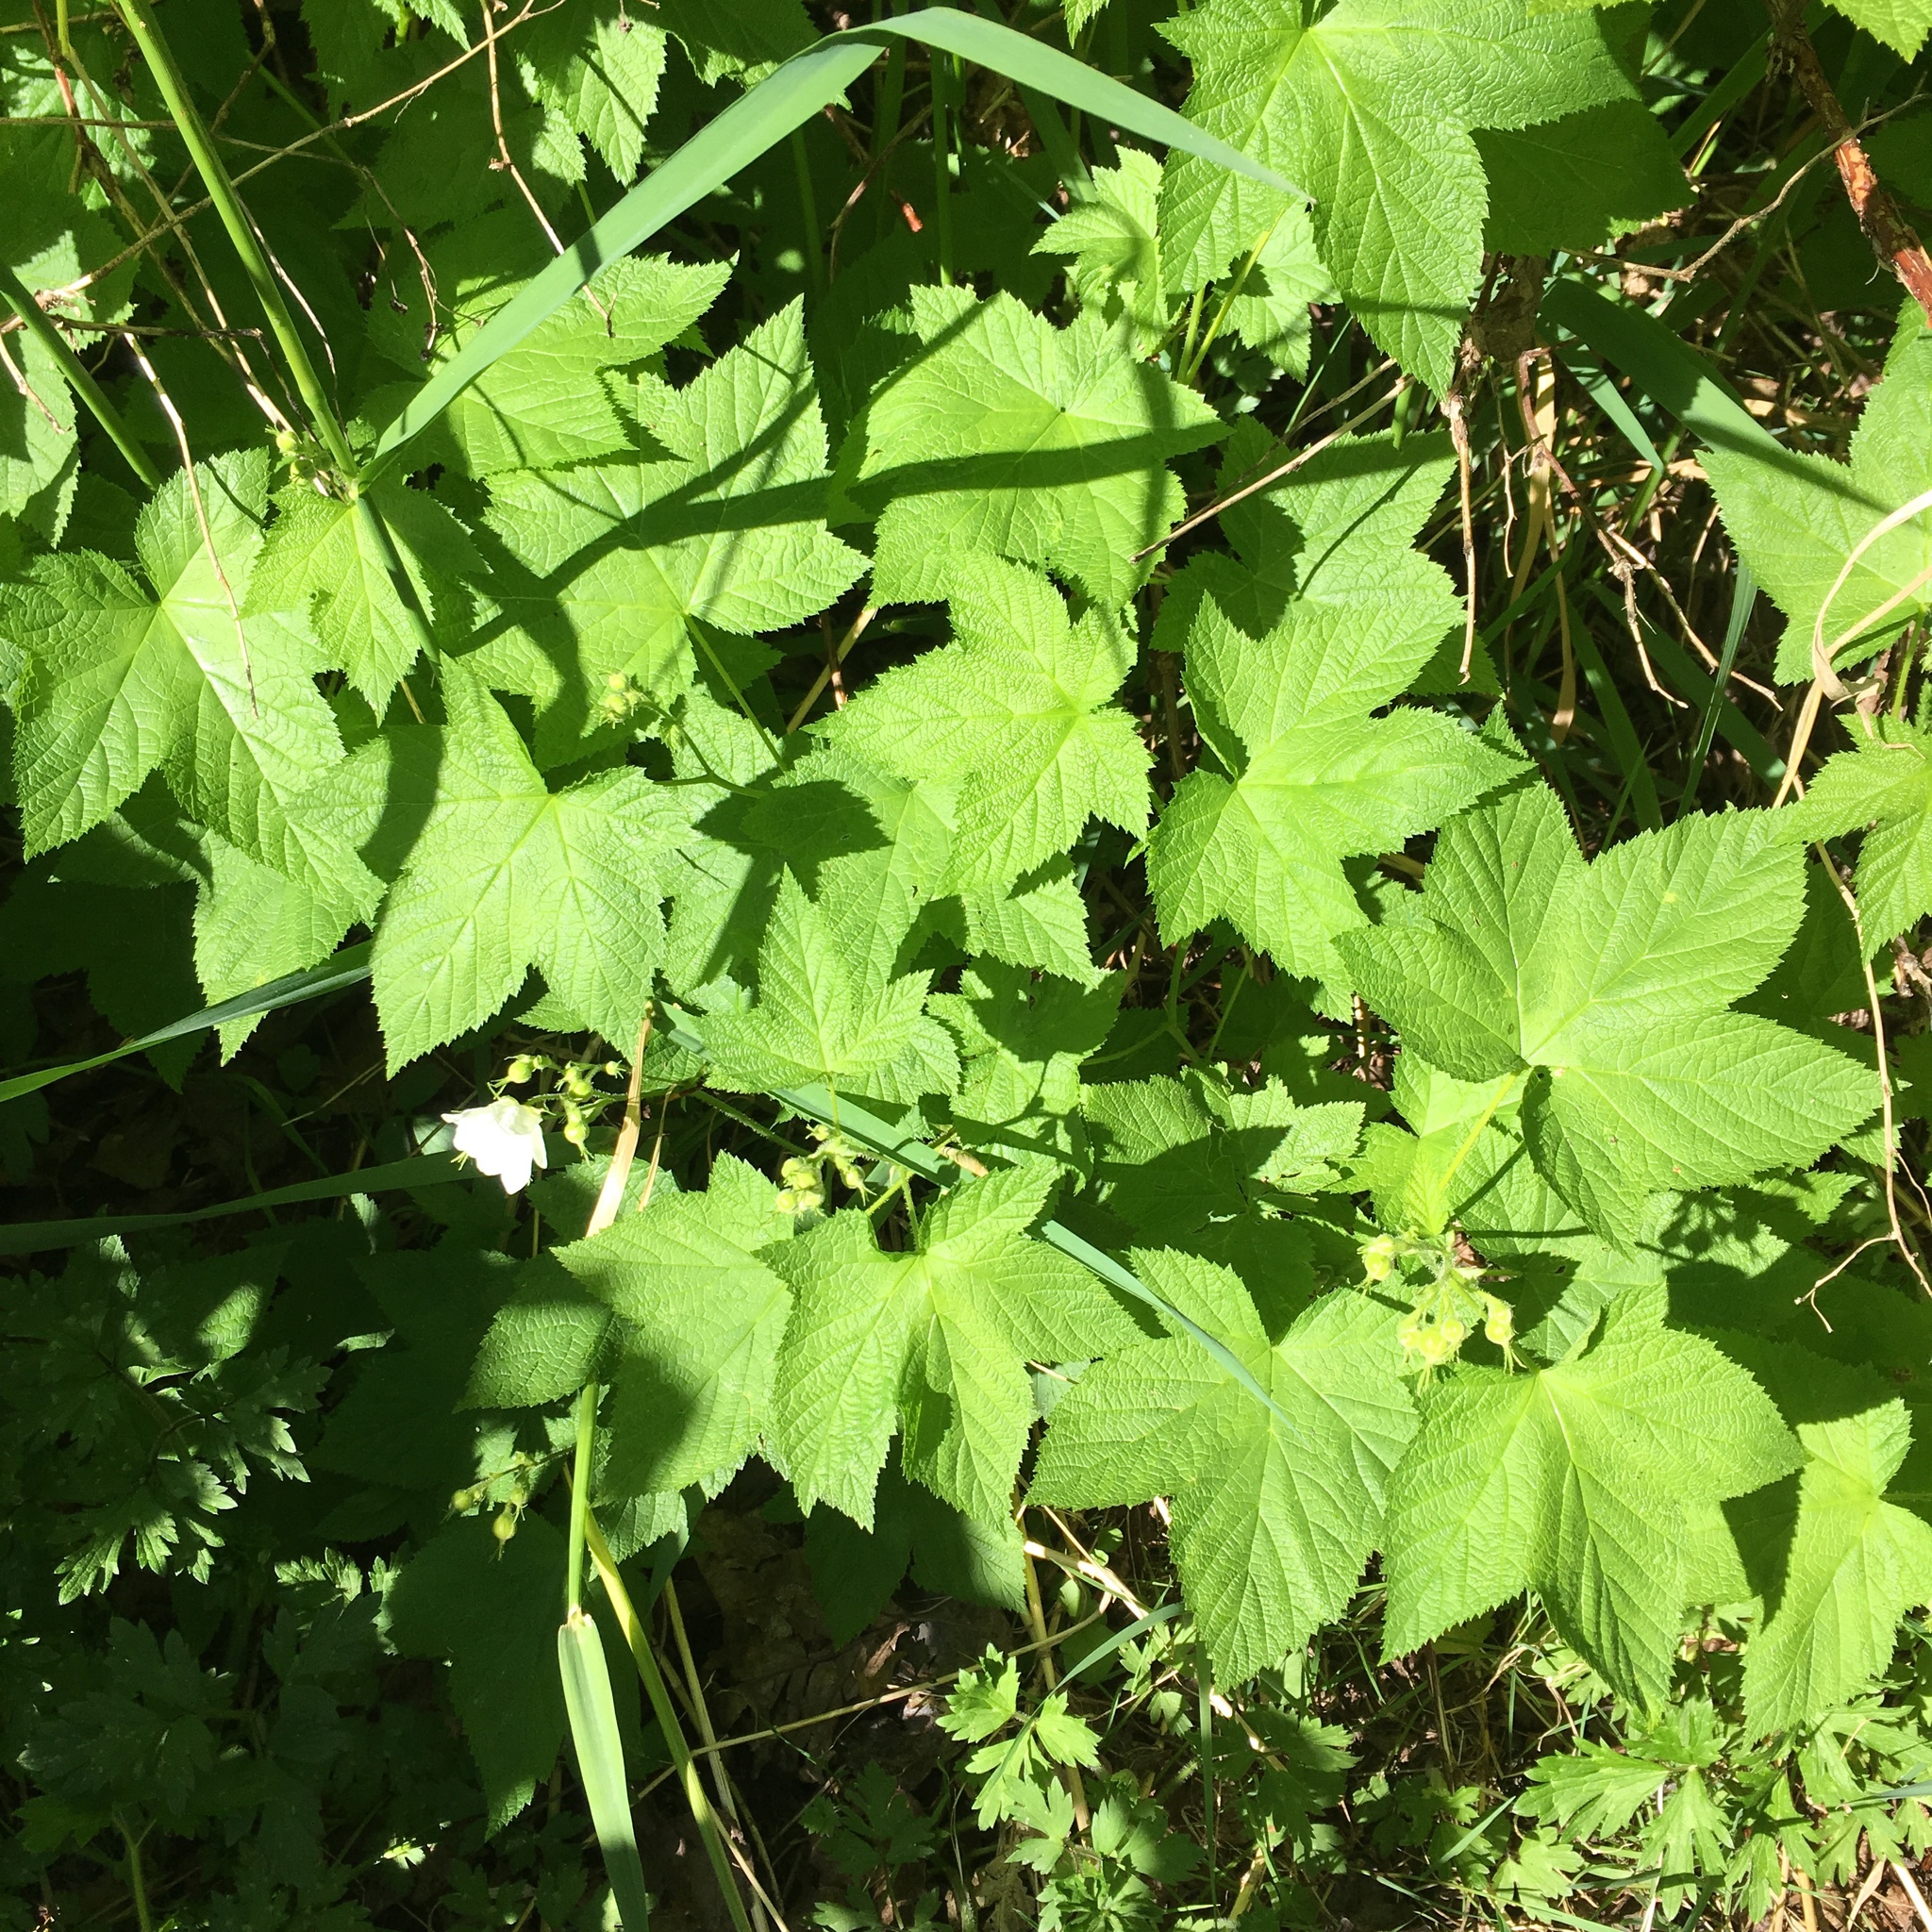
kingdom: Plantae
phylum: Tracheophyta
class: Magnoliopsida
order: Rosales
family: Rosaceae
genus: Rubus
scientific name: Rubus parviflorus
